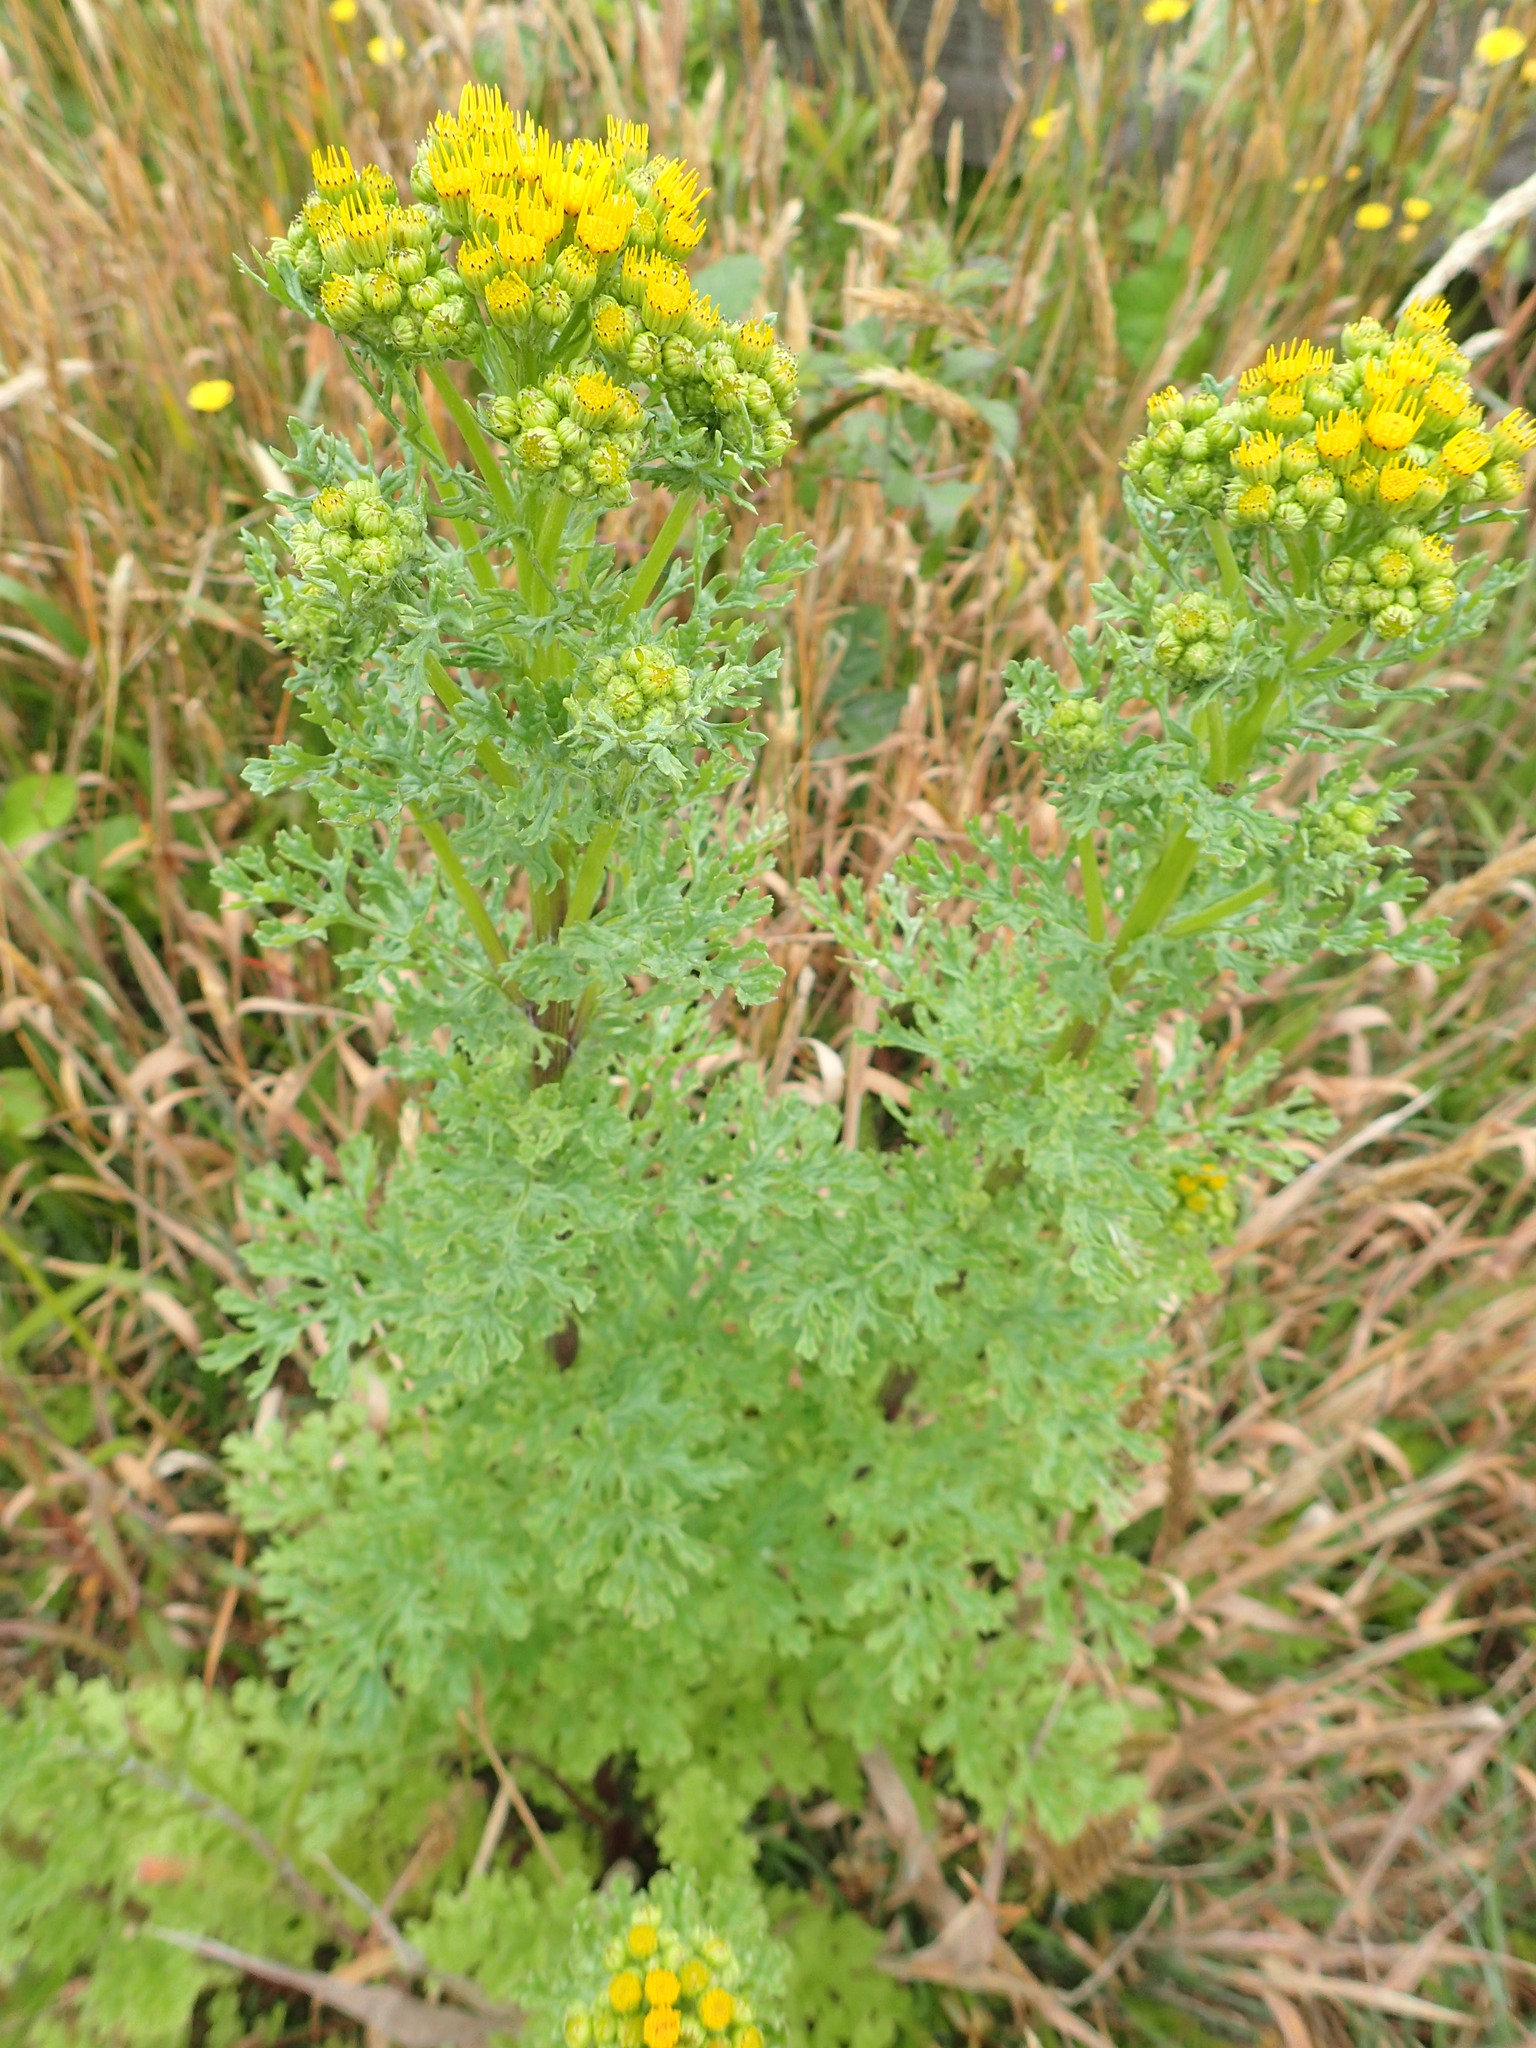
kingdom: Plantae
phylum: Tracheophyta
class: Magnoliopsida
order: Asterales
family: Asteraceae
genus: Jacobaea
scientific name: Jacobaea vulgaris
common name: Stinking willie
